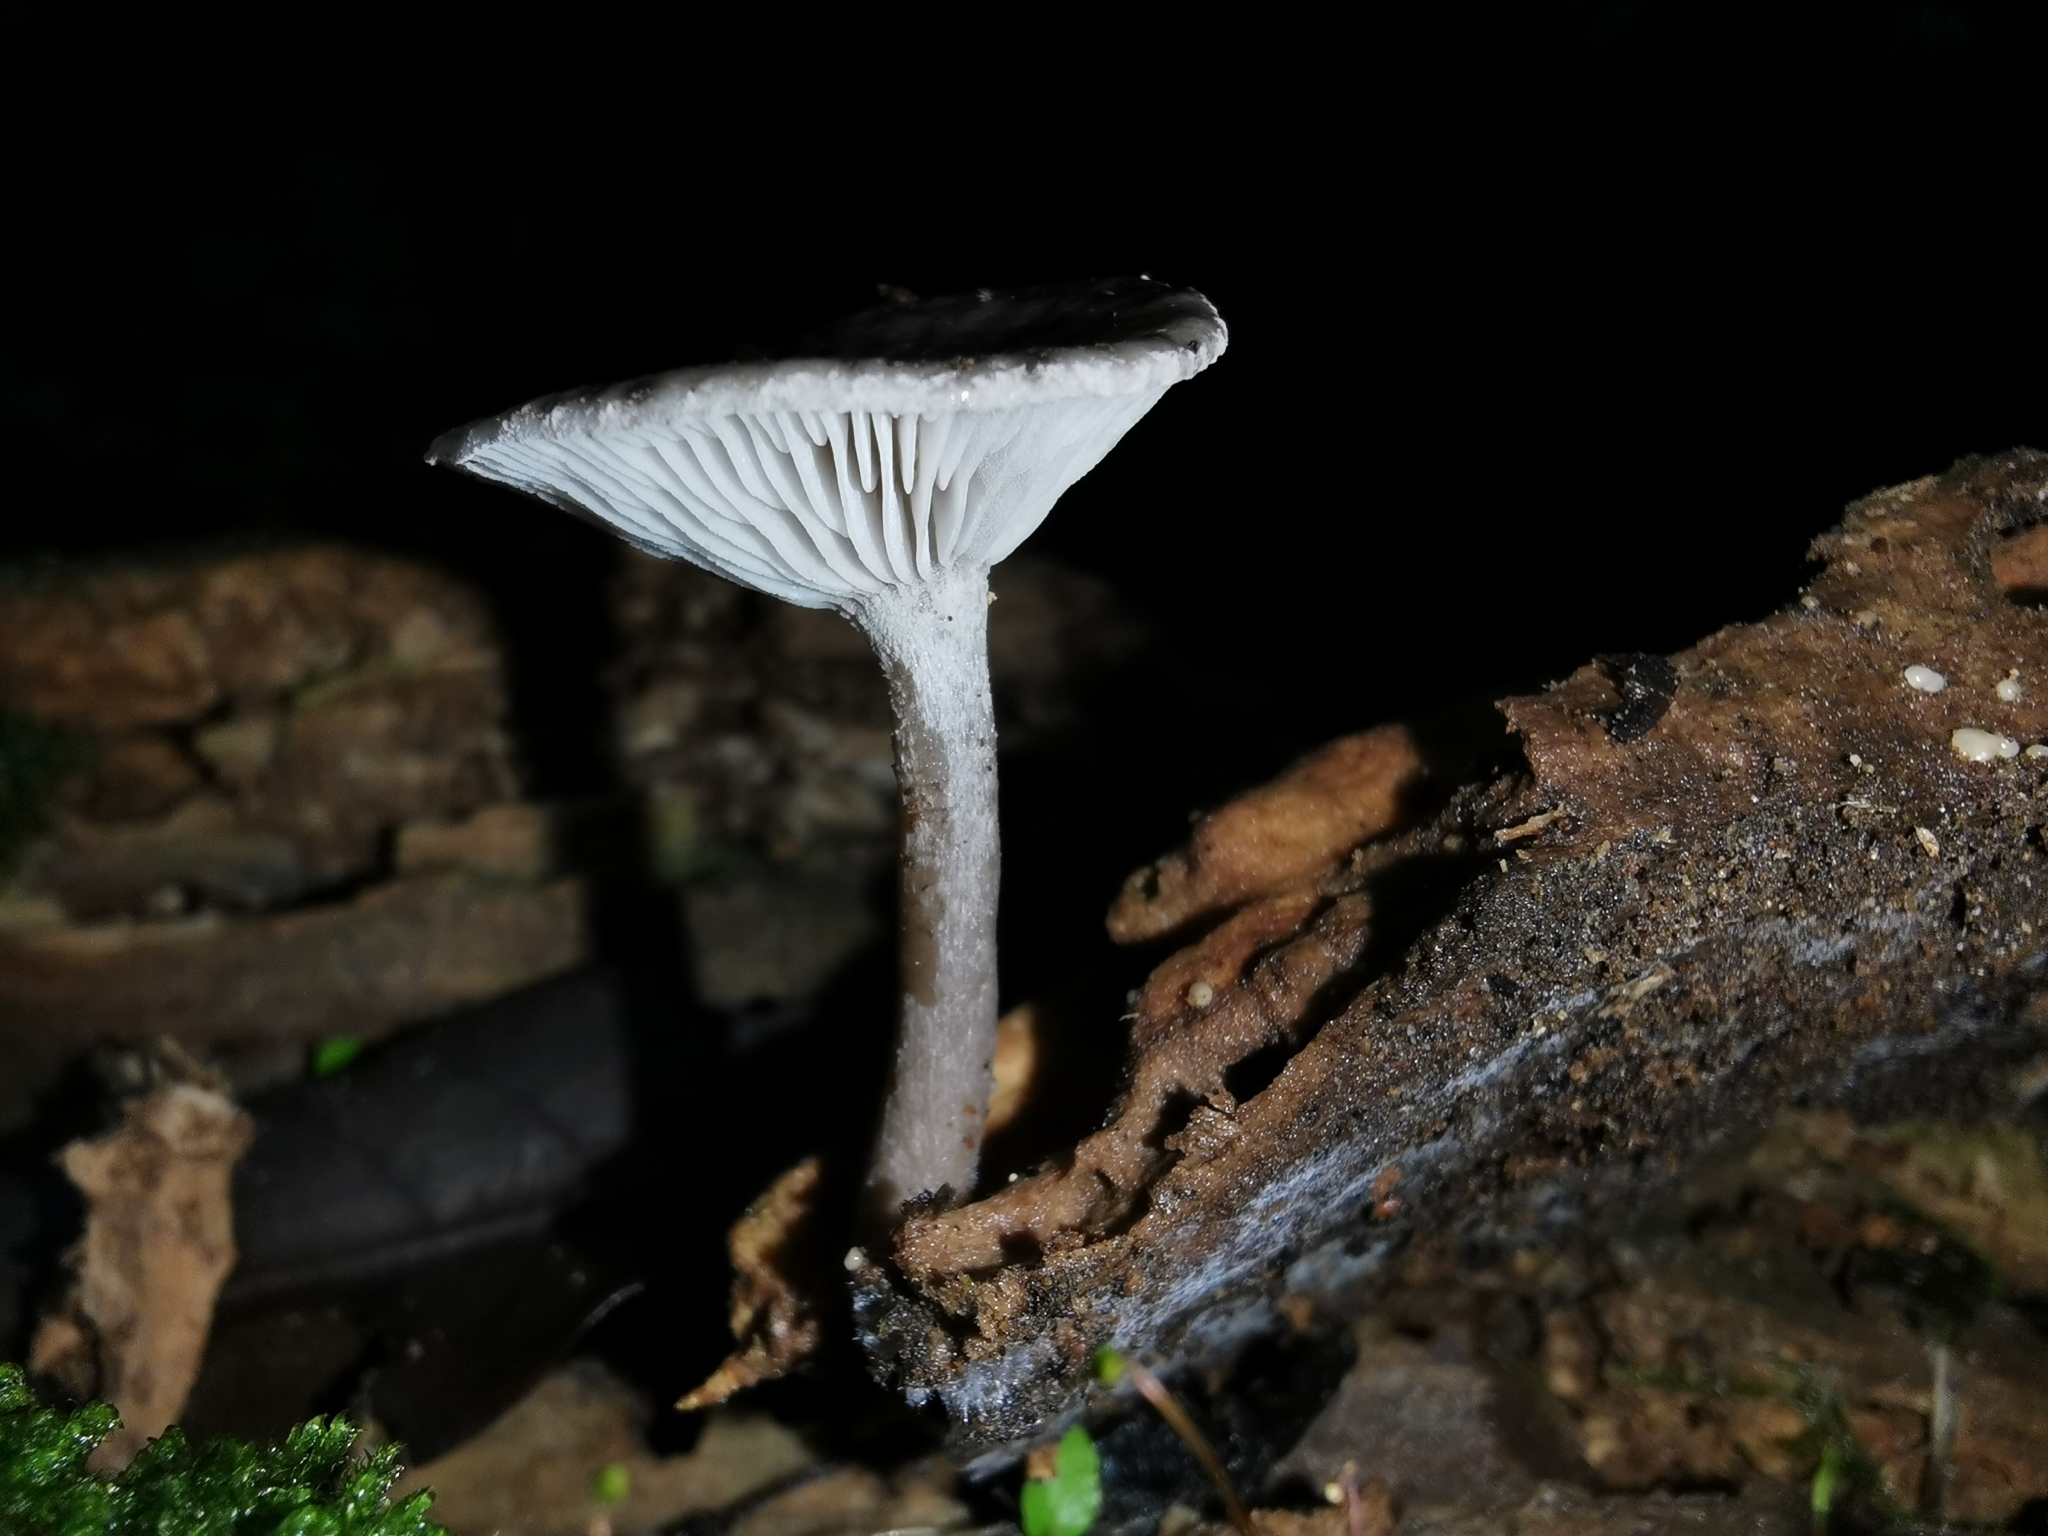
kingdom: Fungi
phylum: Basidiomycota
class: Agaricomycetes
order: Agaricales
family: Pleurotaceae
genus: Hohenbuehelia
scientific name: Hohenbuehelia
